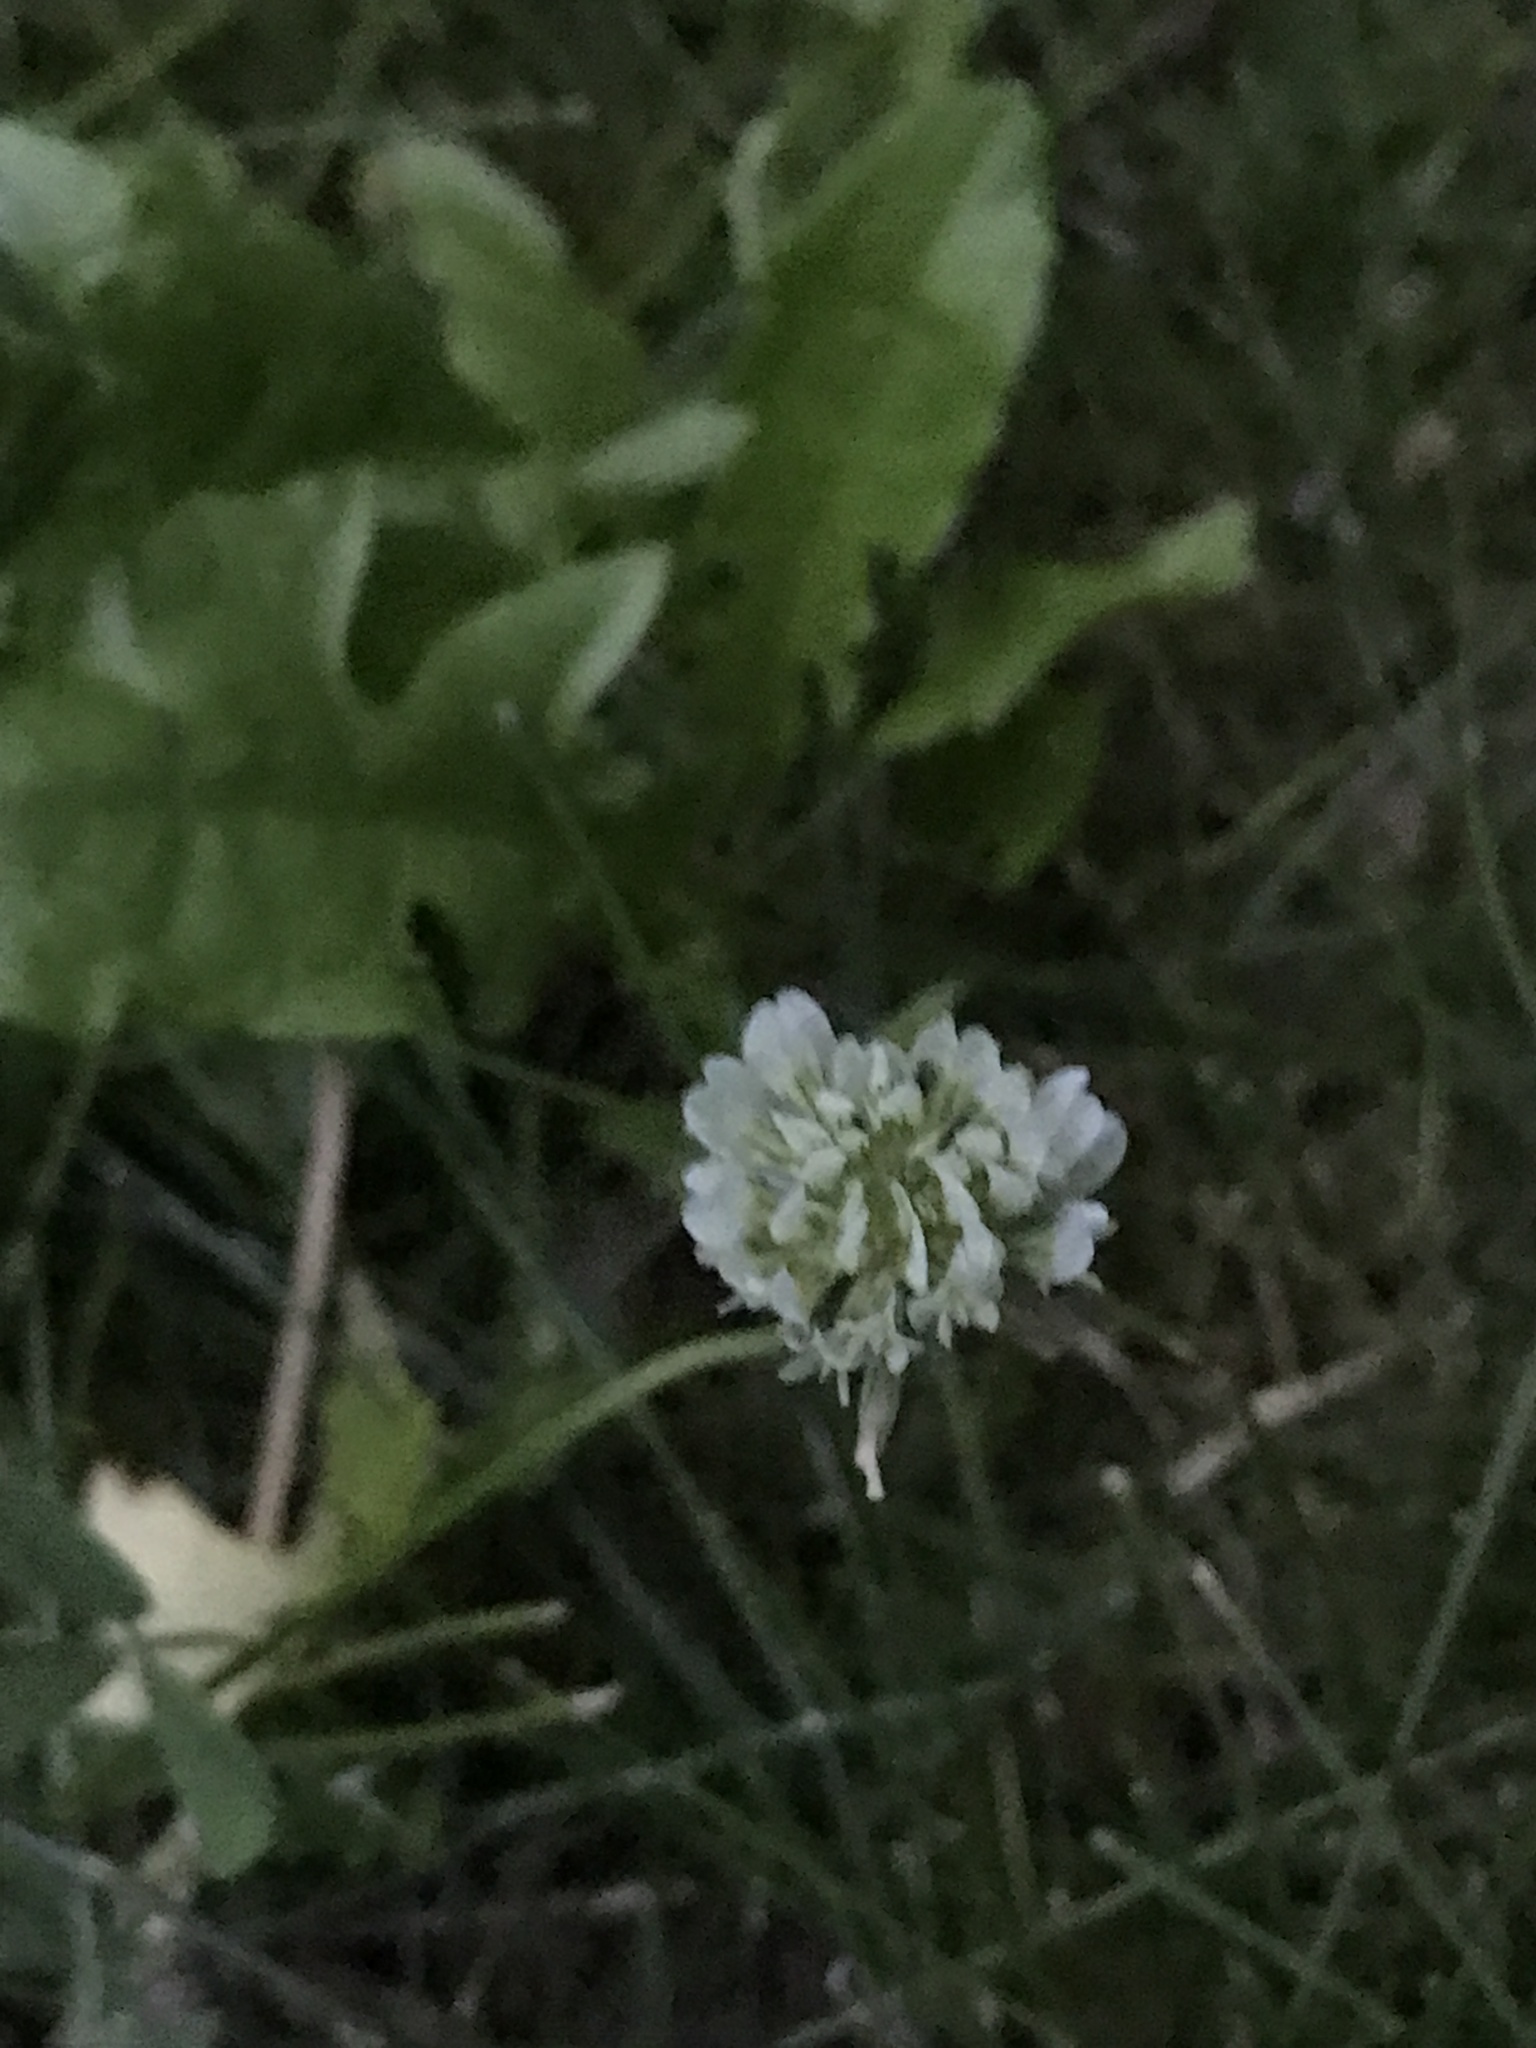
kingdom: Plantae
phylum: Tracheophyta
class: Magnoliopsida
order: Fabales
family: Fabaceae
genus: Trifolium
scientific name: Trifolium repens
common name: White clover
